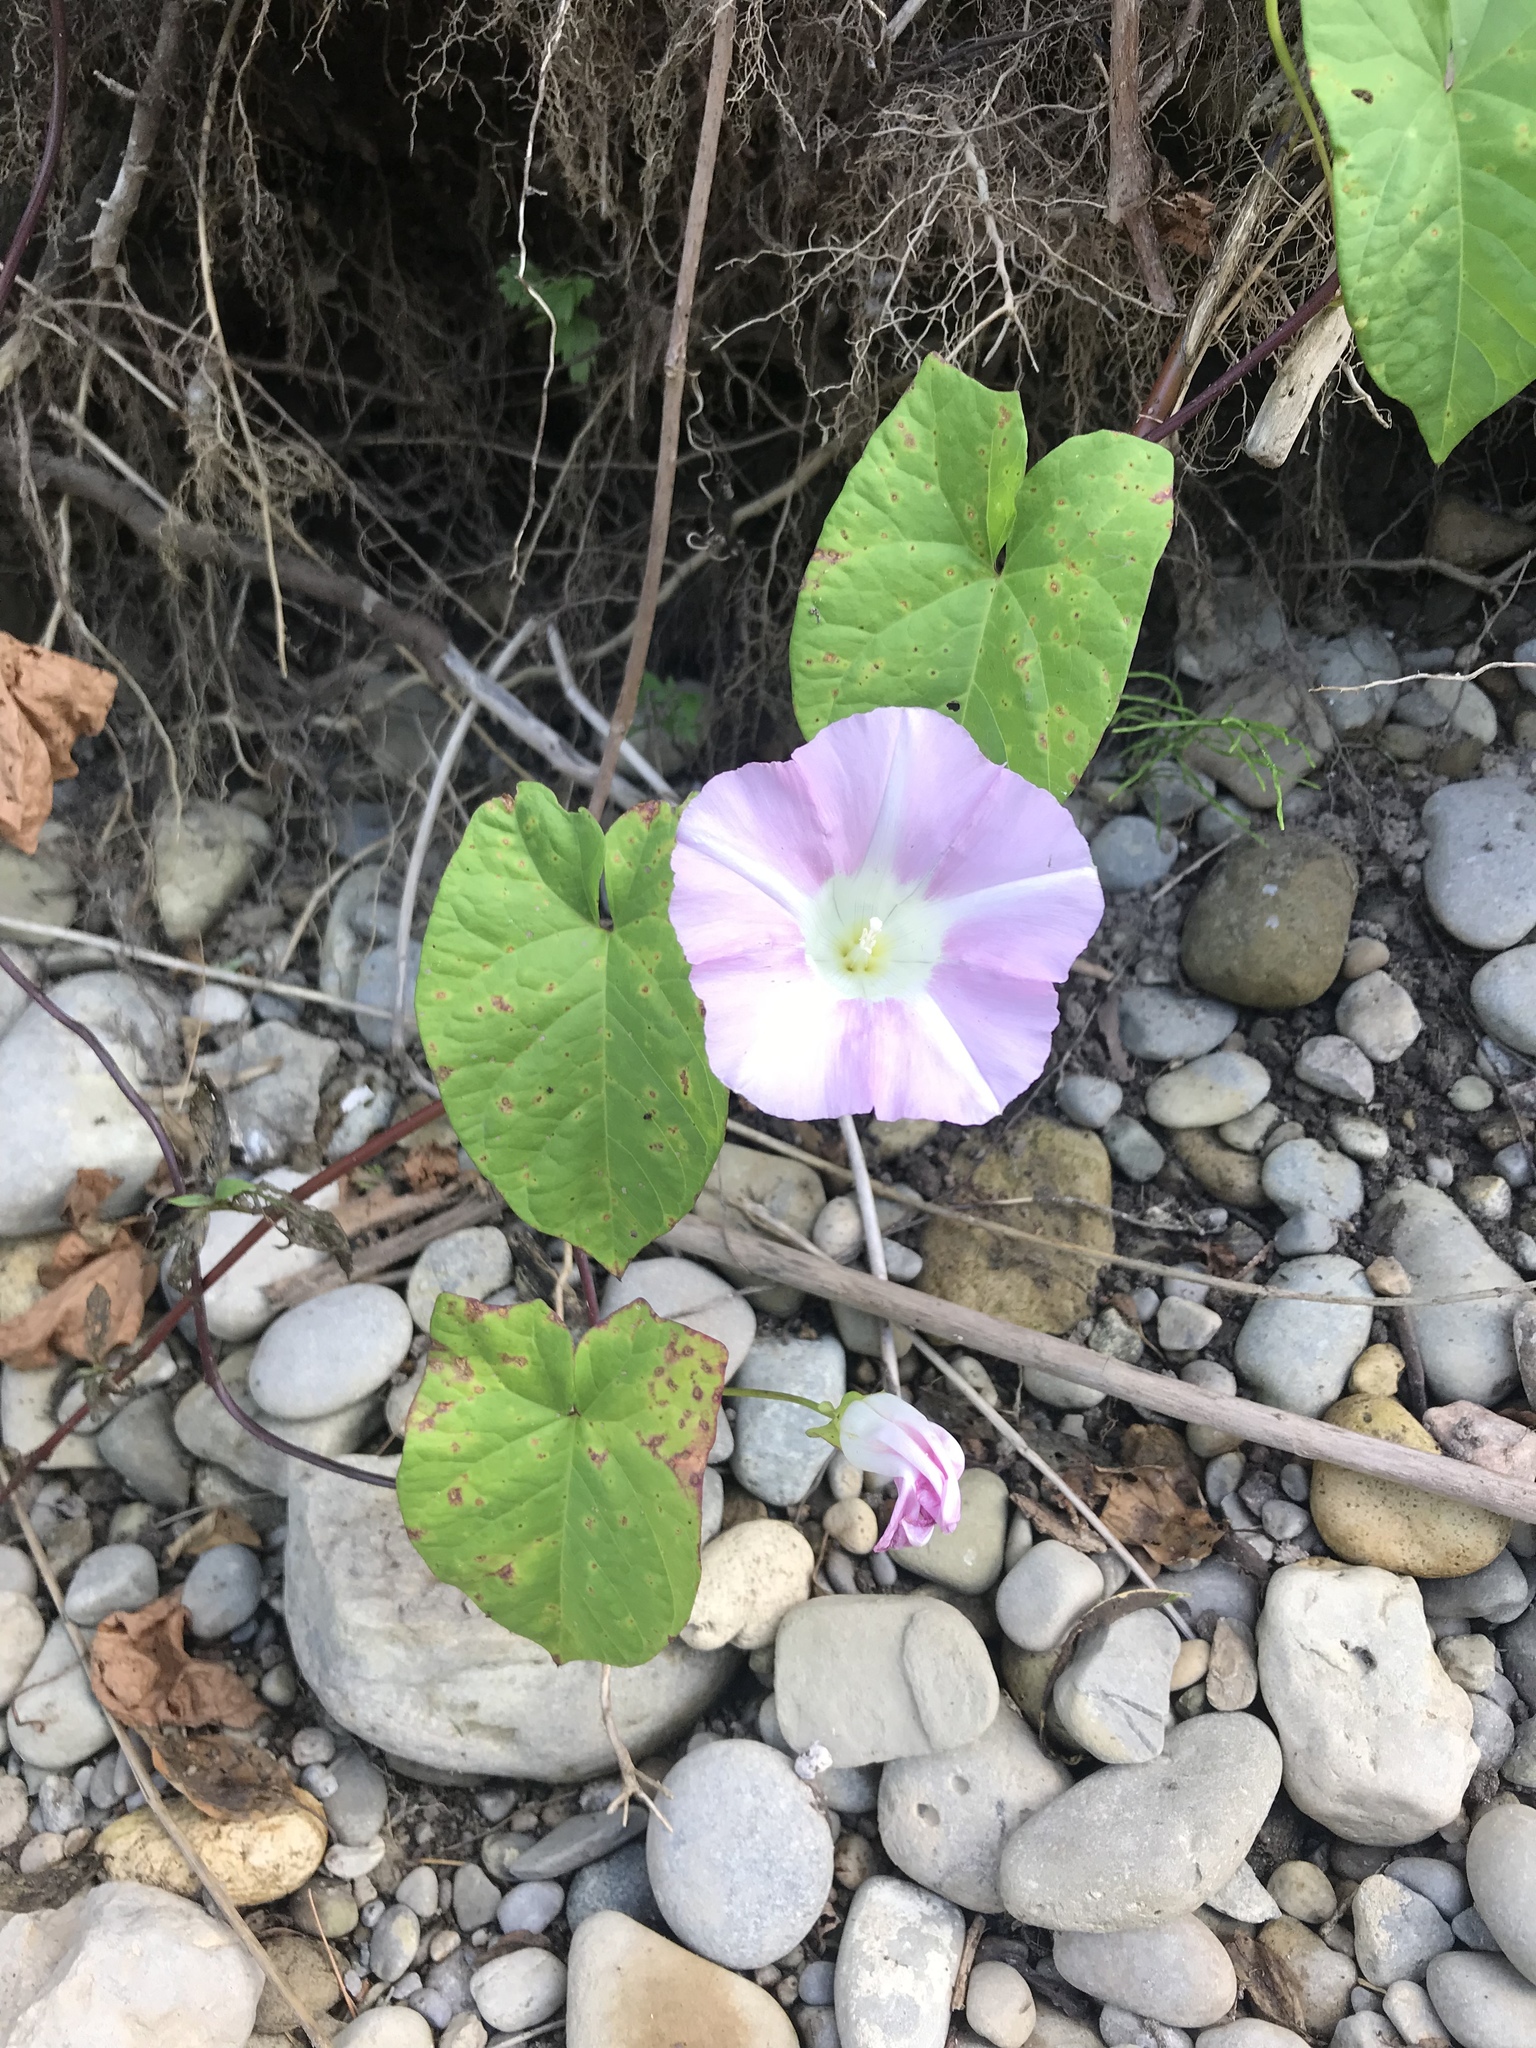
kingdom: Plantae
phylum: Tracheophyta
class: Magnoliopsida
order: Solanales
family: Convolvulaceae
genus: Calystegia
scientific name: Calystegia sepium
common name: Hedge bindweed
